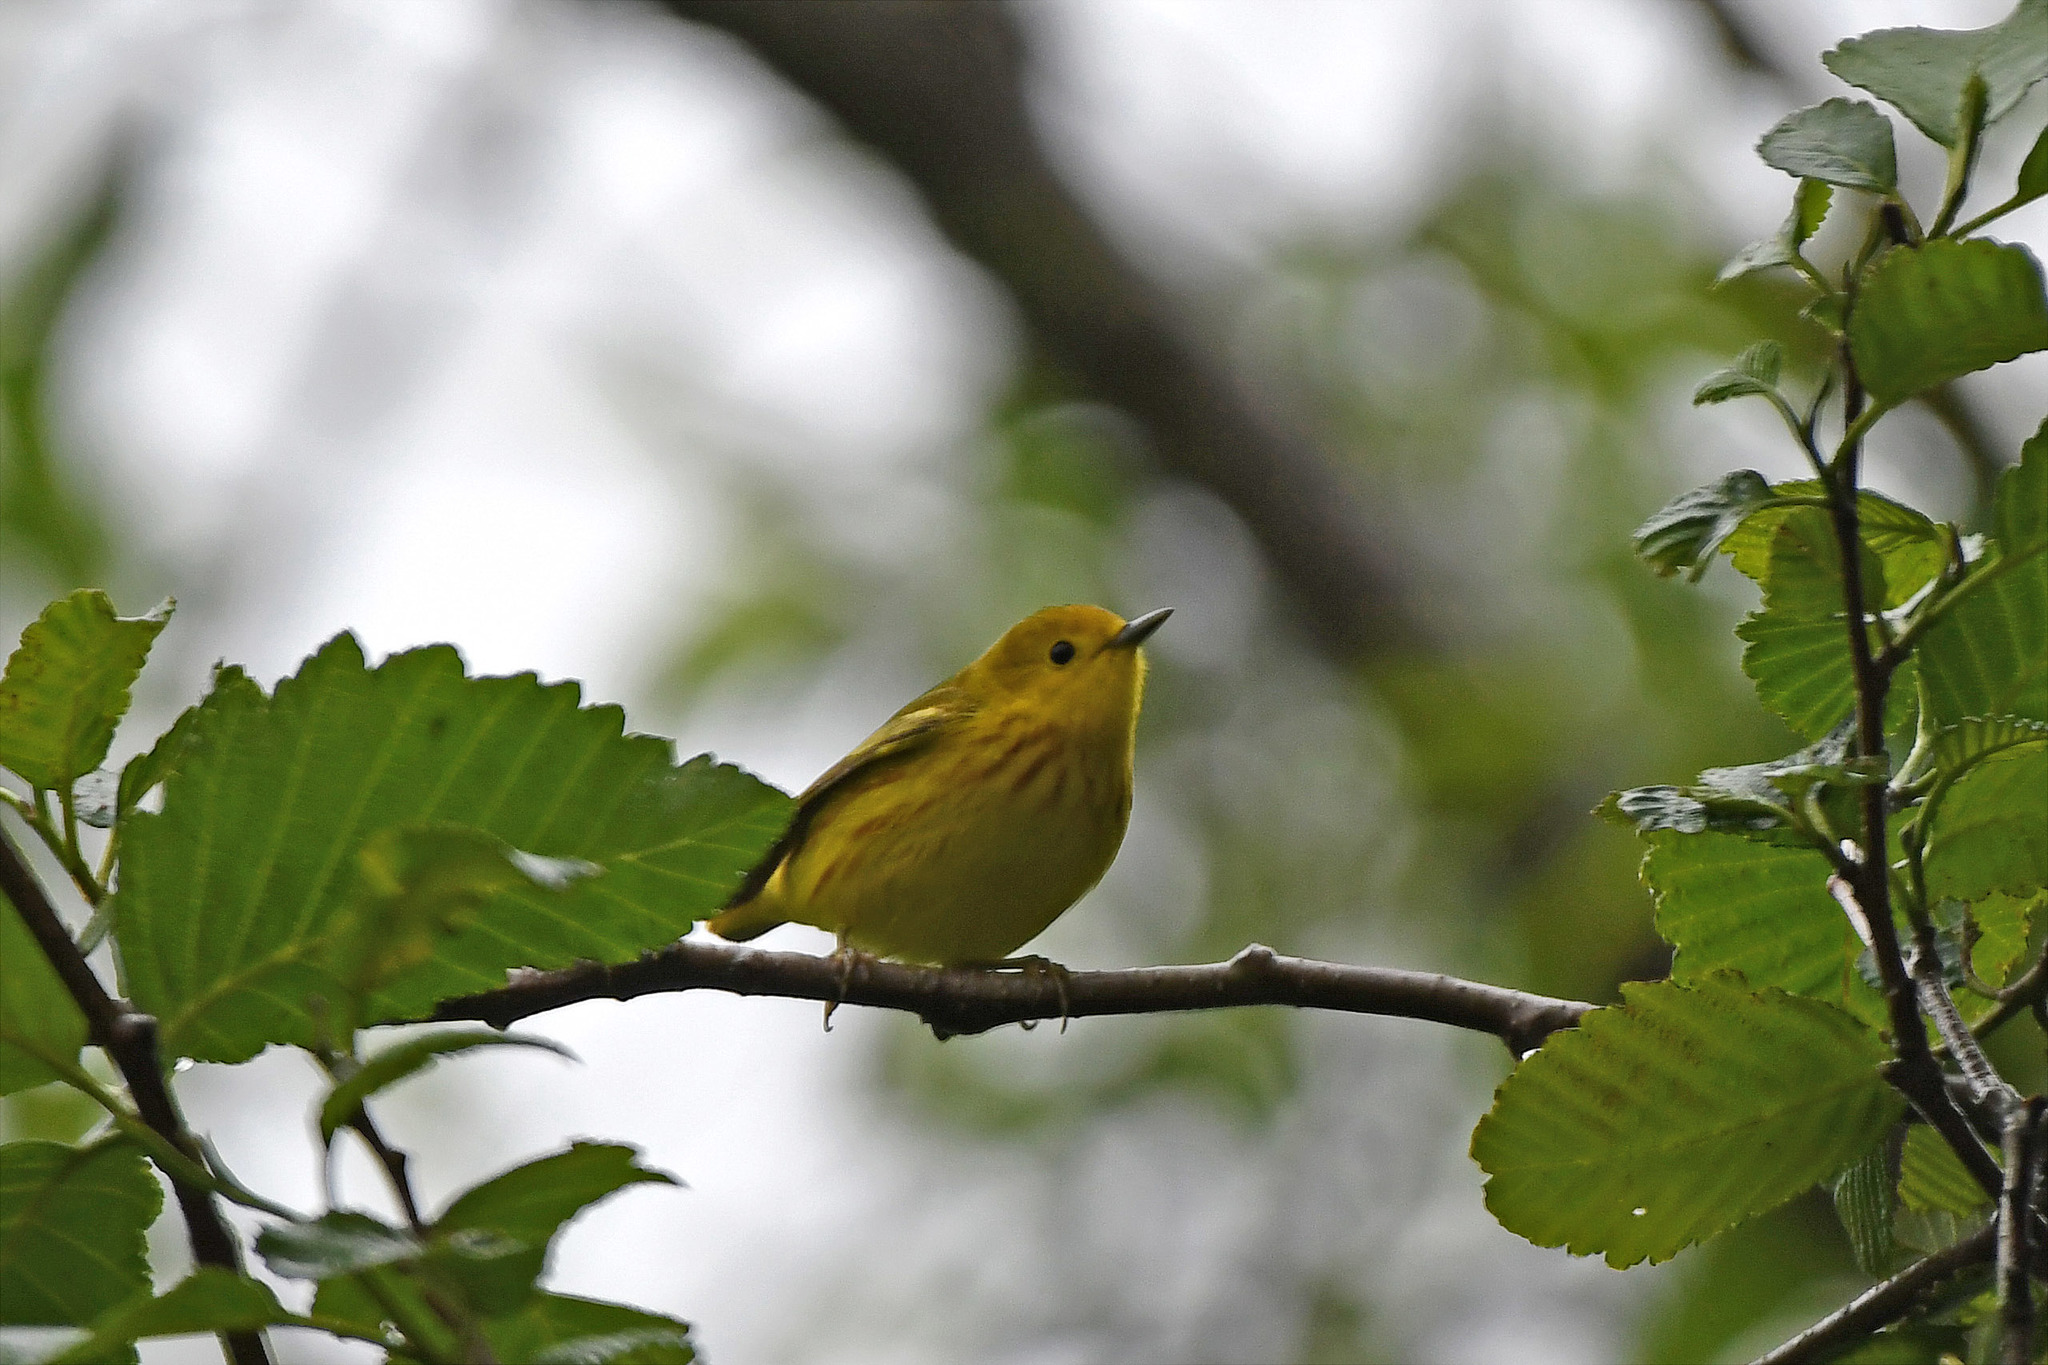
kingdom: Animalia
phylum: Chordata
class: Aves
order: Passeriformes
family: Parulidae
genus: Setophaga
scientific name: Setophaga petechia
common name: Yellow warbler
